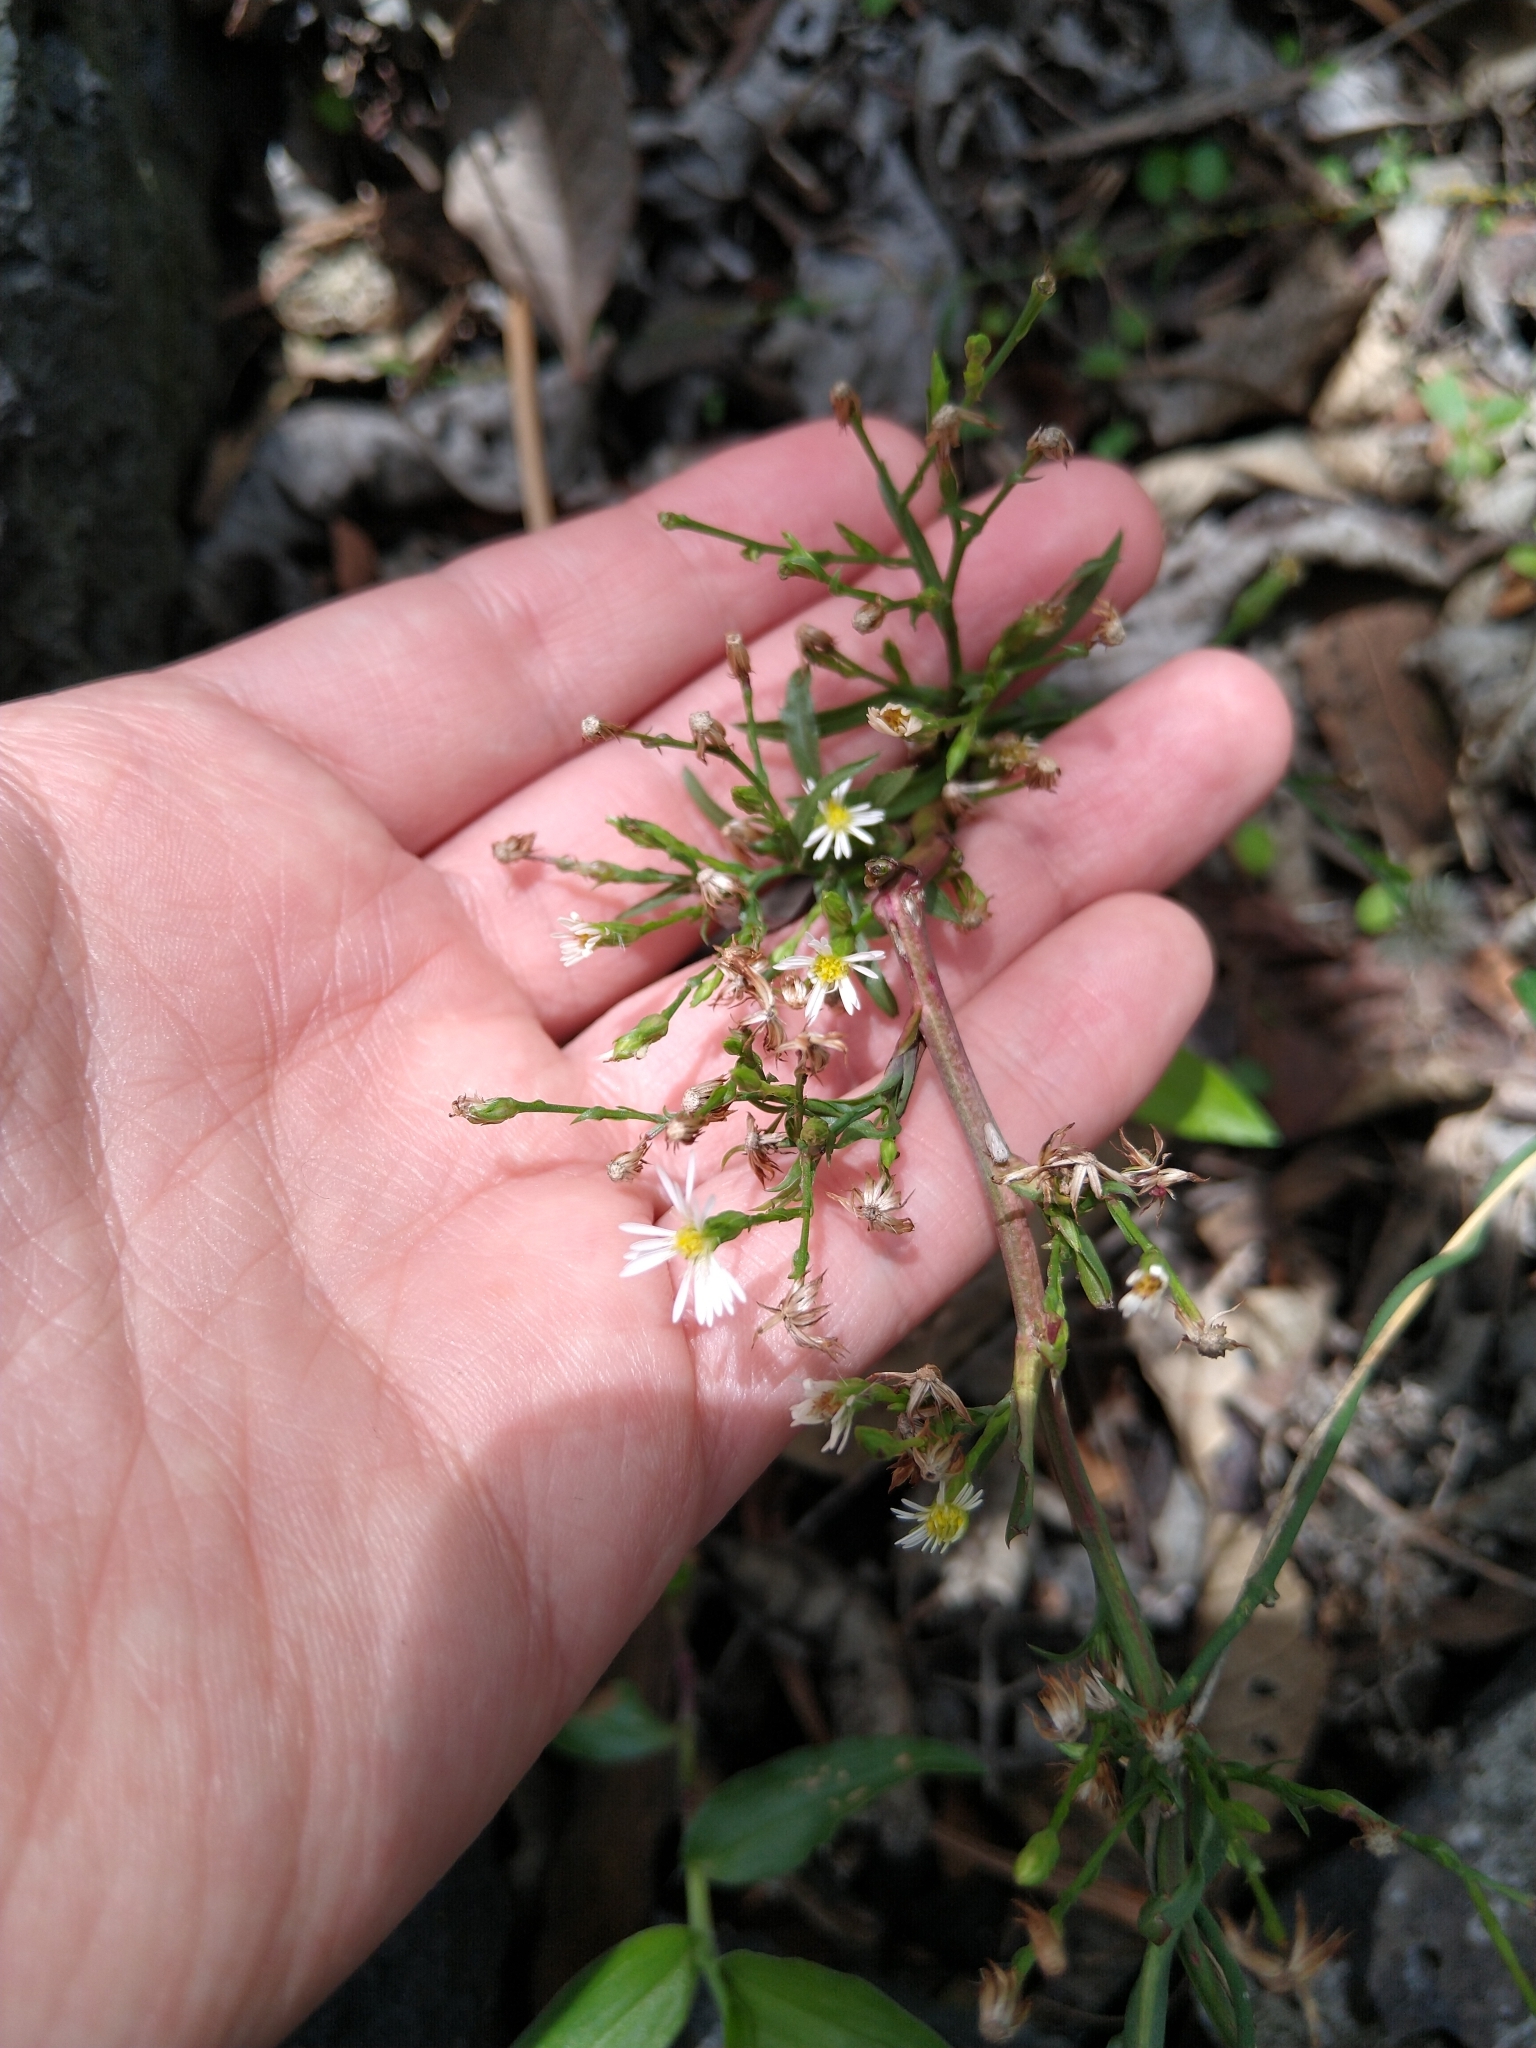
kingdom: Plantae
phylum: Tracheophyta
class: Magnoliopsida
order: Asterales
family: Asteraceae
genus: Symphyotrichum
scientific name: Symphyotrichum subulatum
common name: Annual saltmarsh aster
